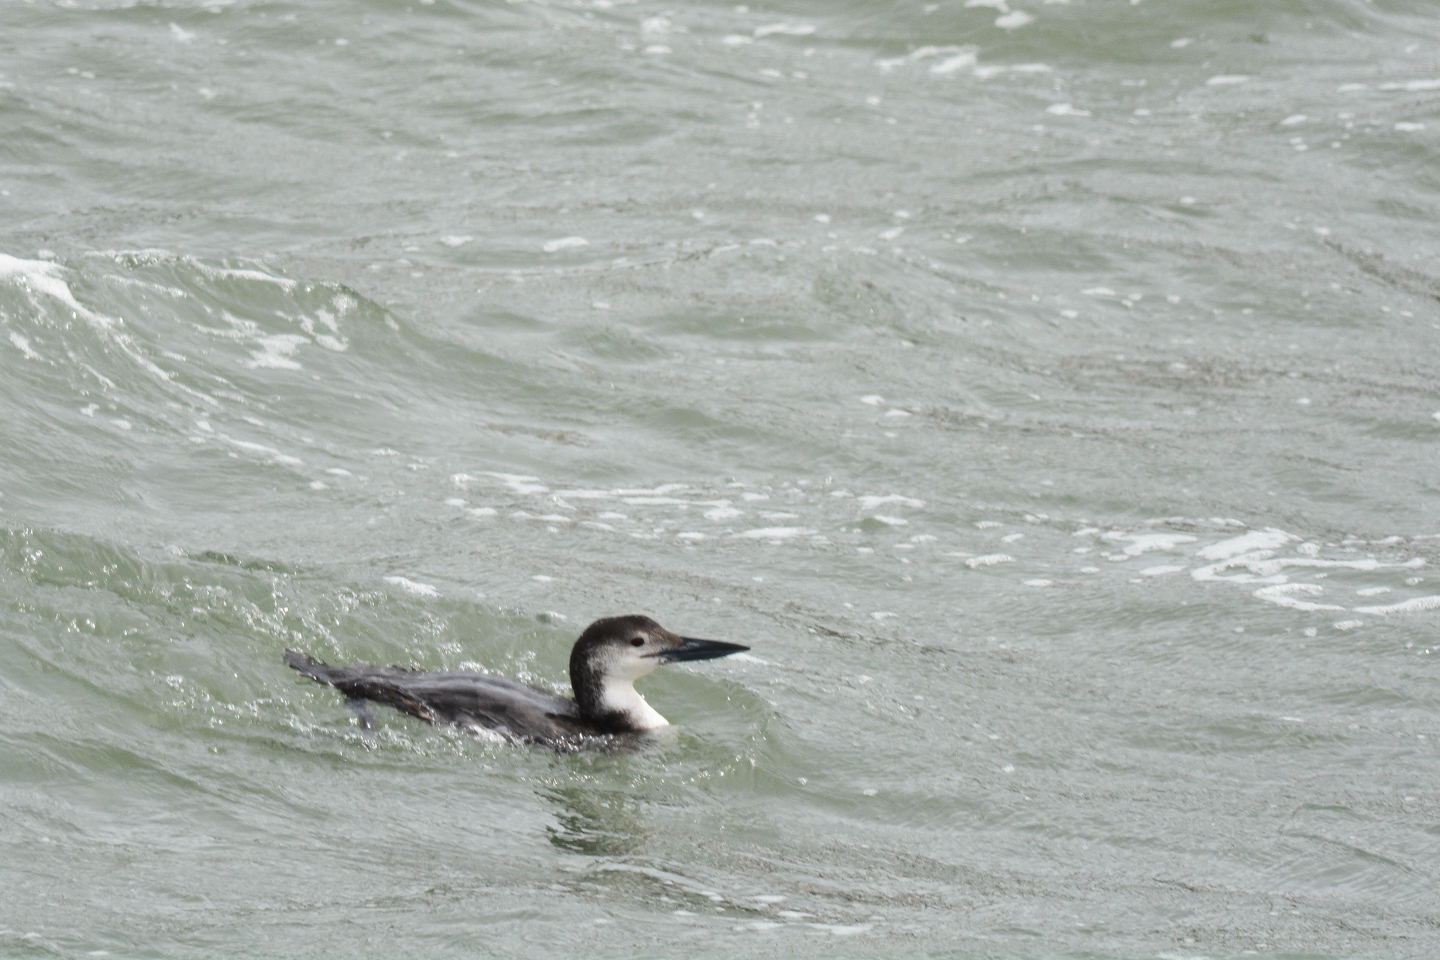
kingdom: Animalia
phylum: Chordata
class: Aves
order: Gaviiformes
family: Gaviidae
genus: Gavia
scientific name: Gavia immer
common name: Common loon
